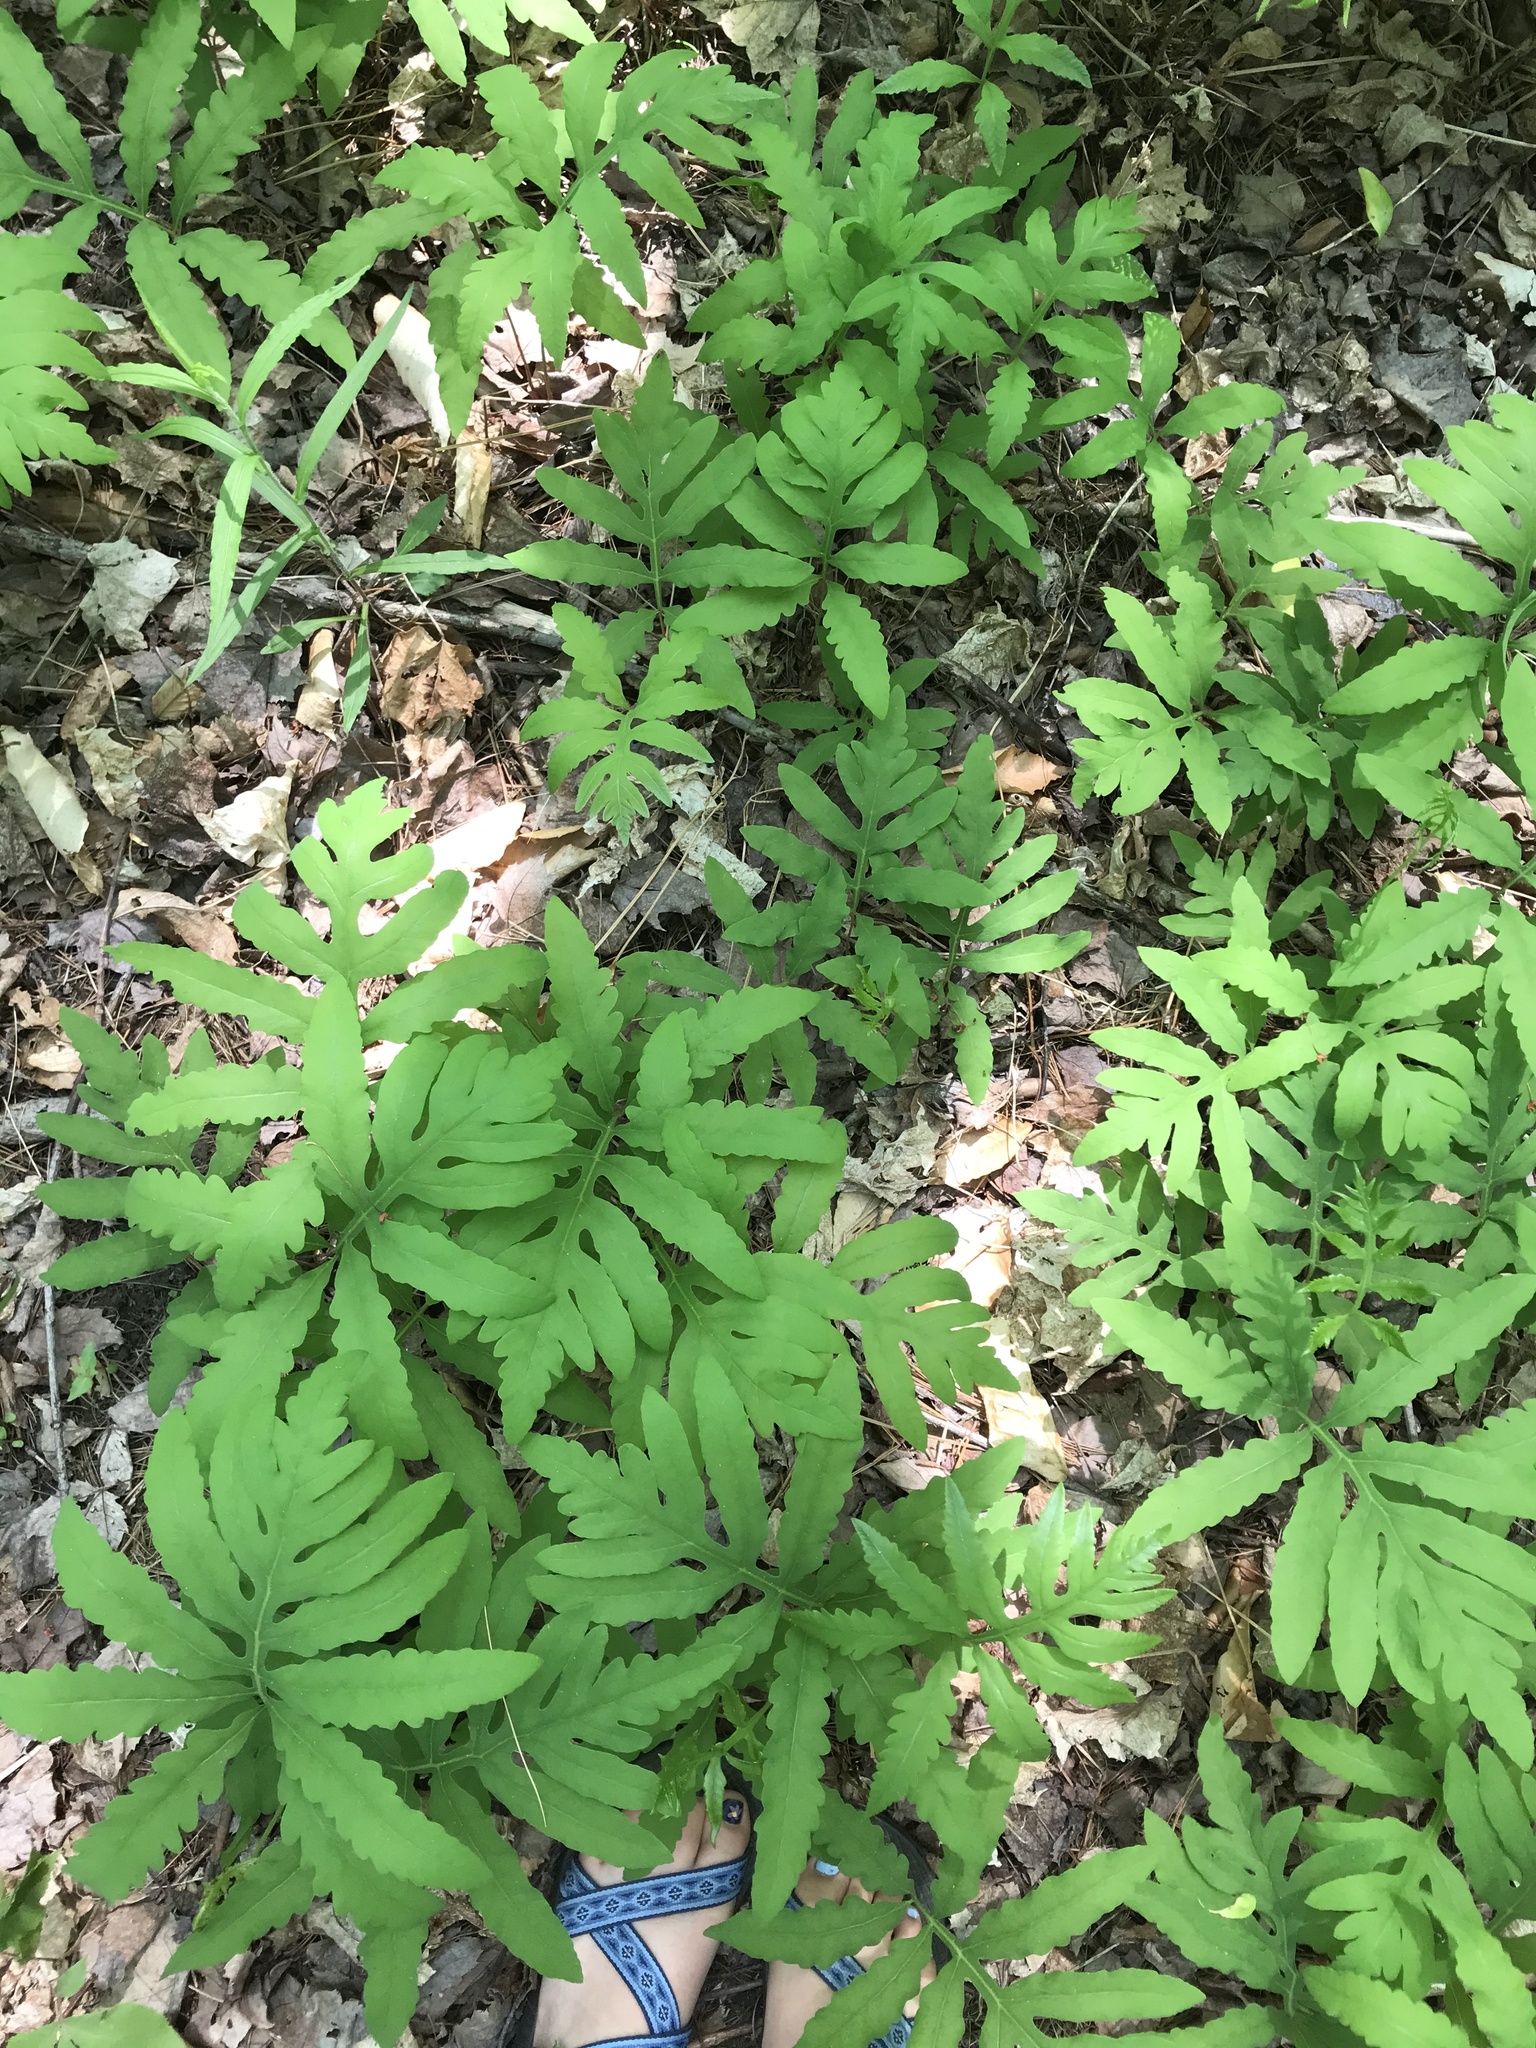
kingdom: Plantae
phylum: Tracheophyta
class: Polypodiopsida
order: Polypodiales
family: Onocleaceae
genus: Onoclea
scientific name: Onoclea sensibilis
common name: Sensitive fern
